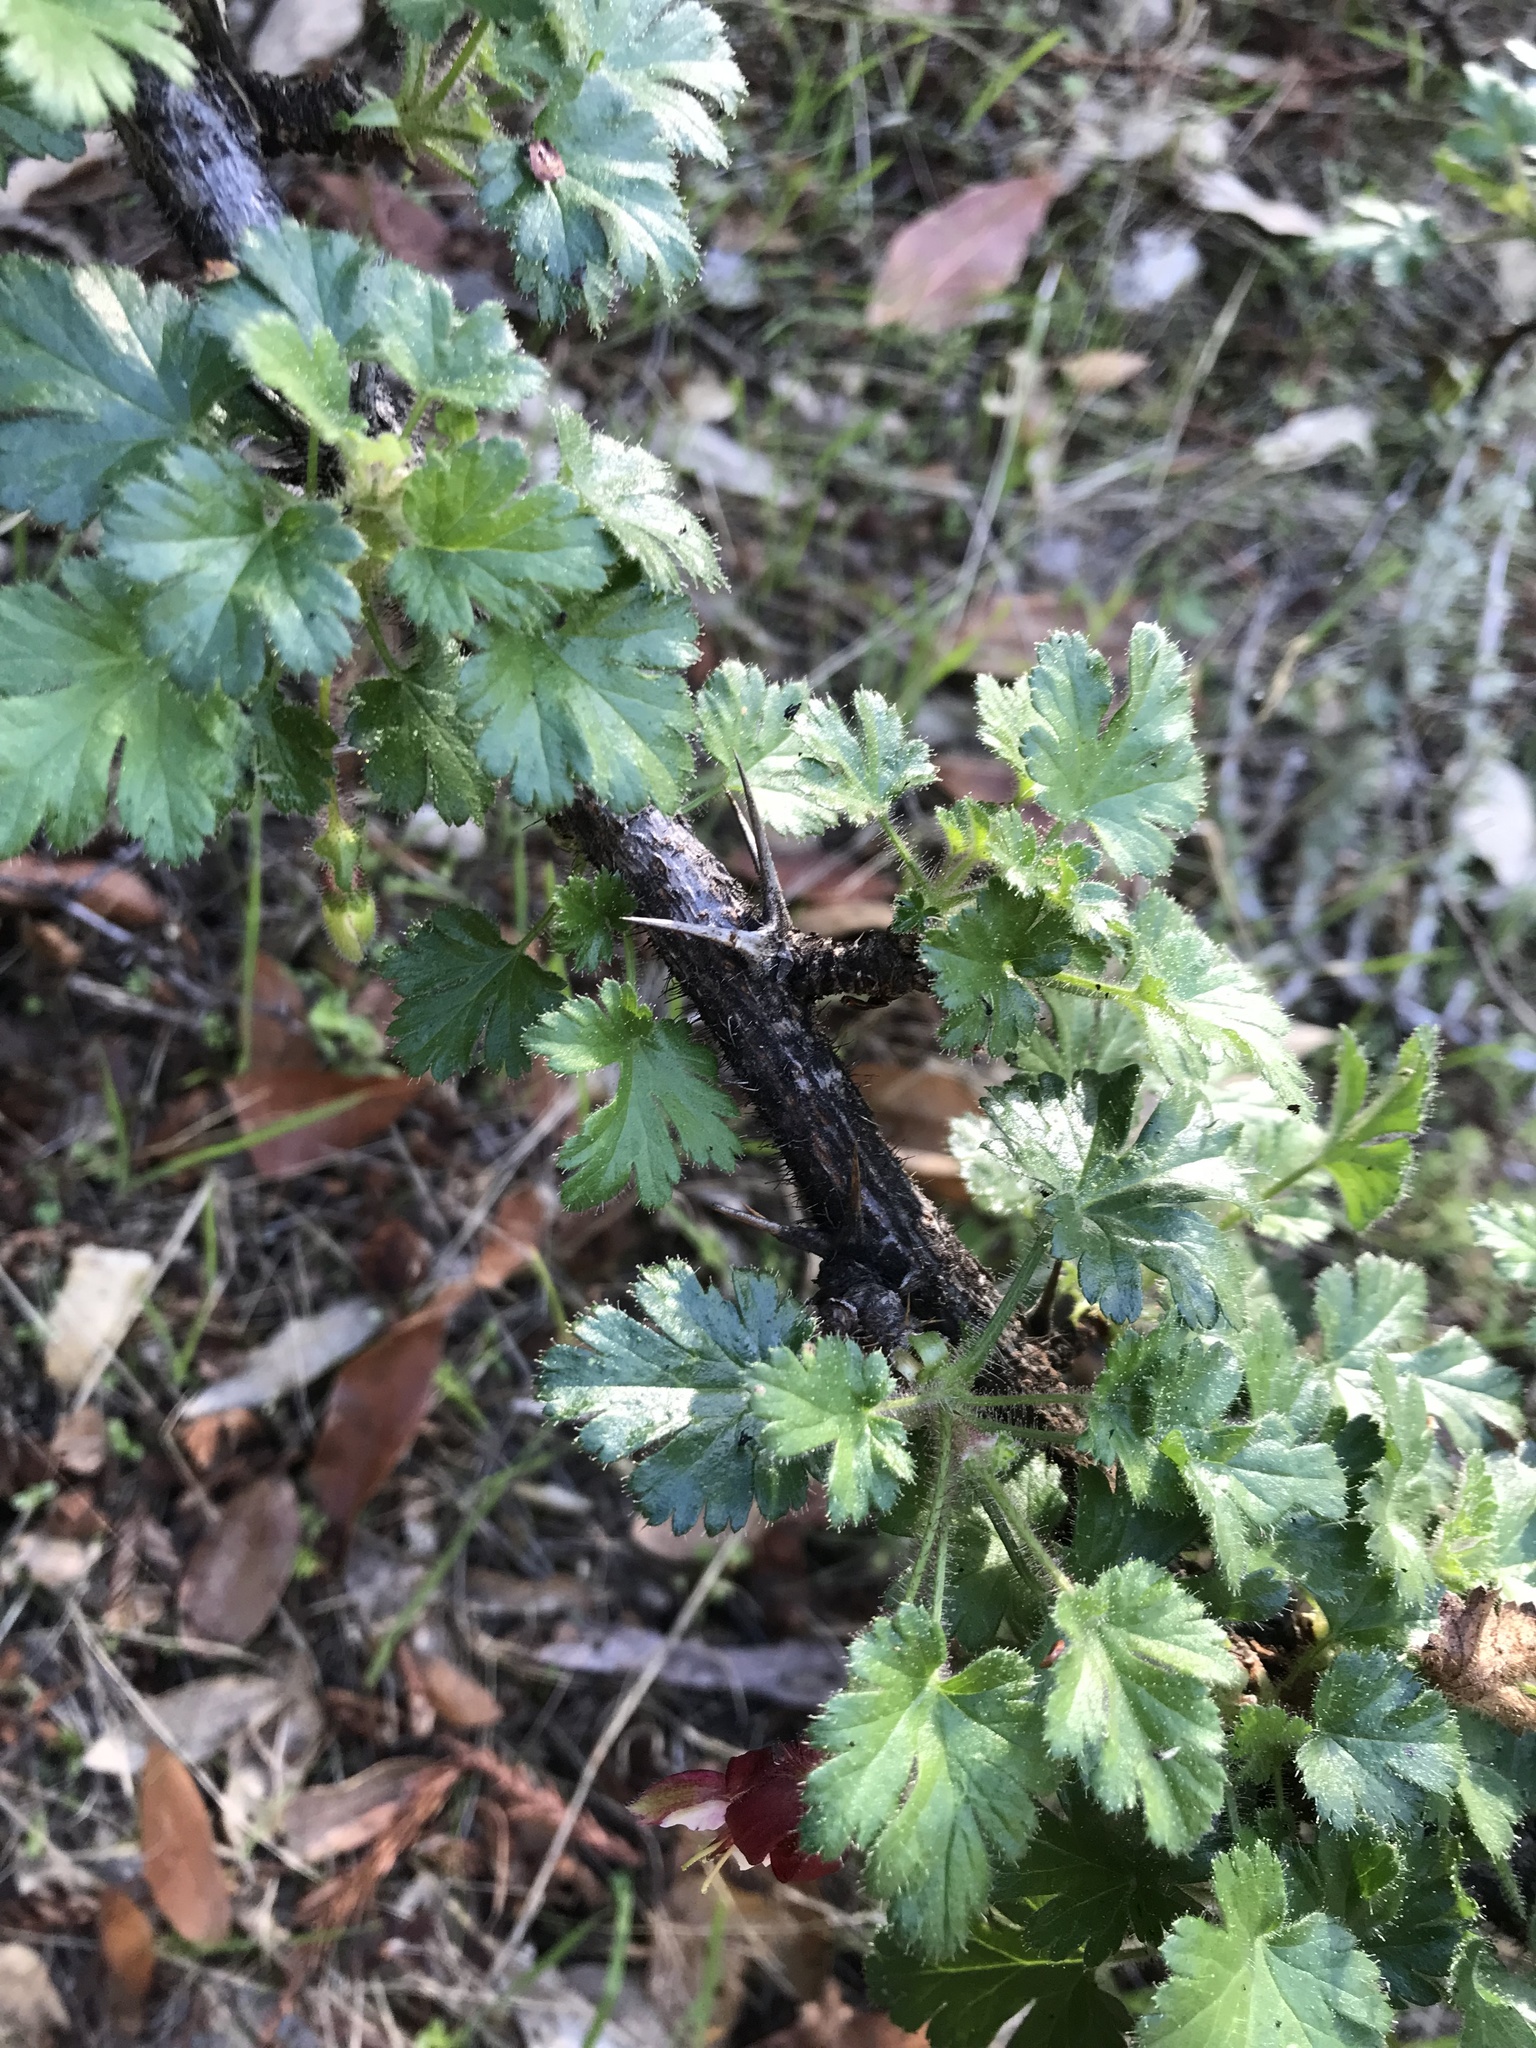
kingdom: Plantae
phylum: Tracheophyta
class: Magnoliopsida
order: Saxifragales
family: Grossulariaceae
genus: Ribes
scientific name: Ribes sericeum
